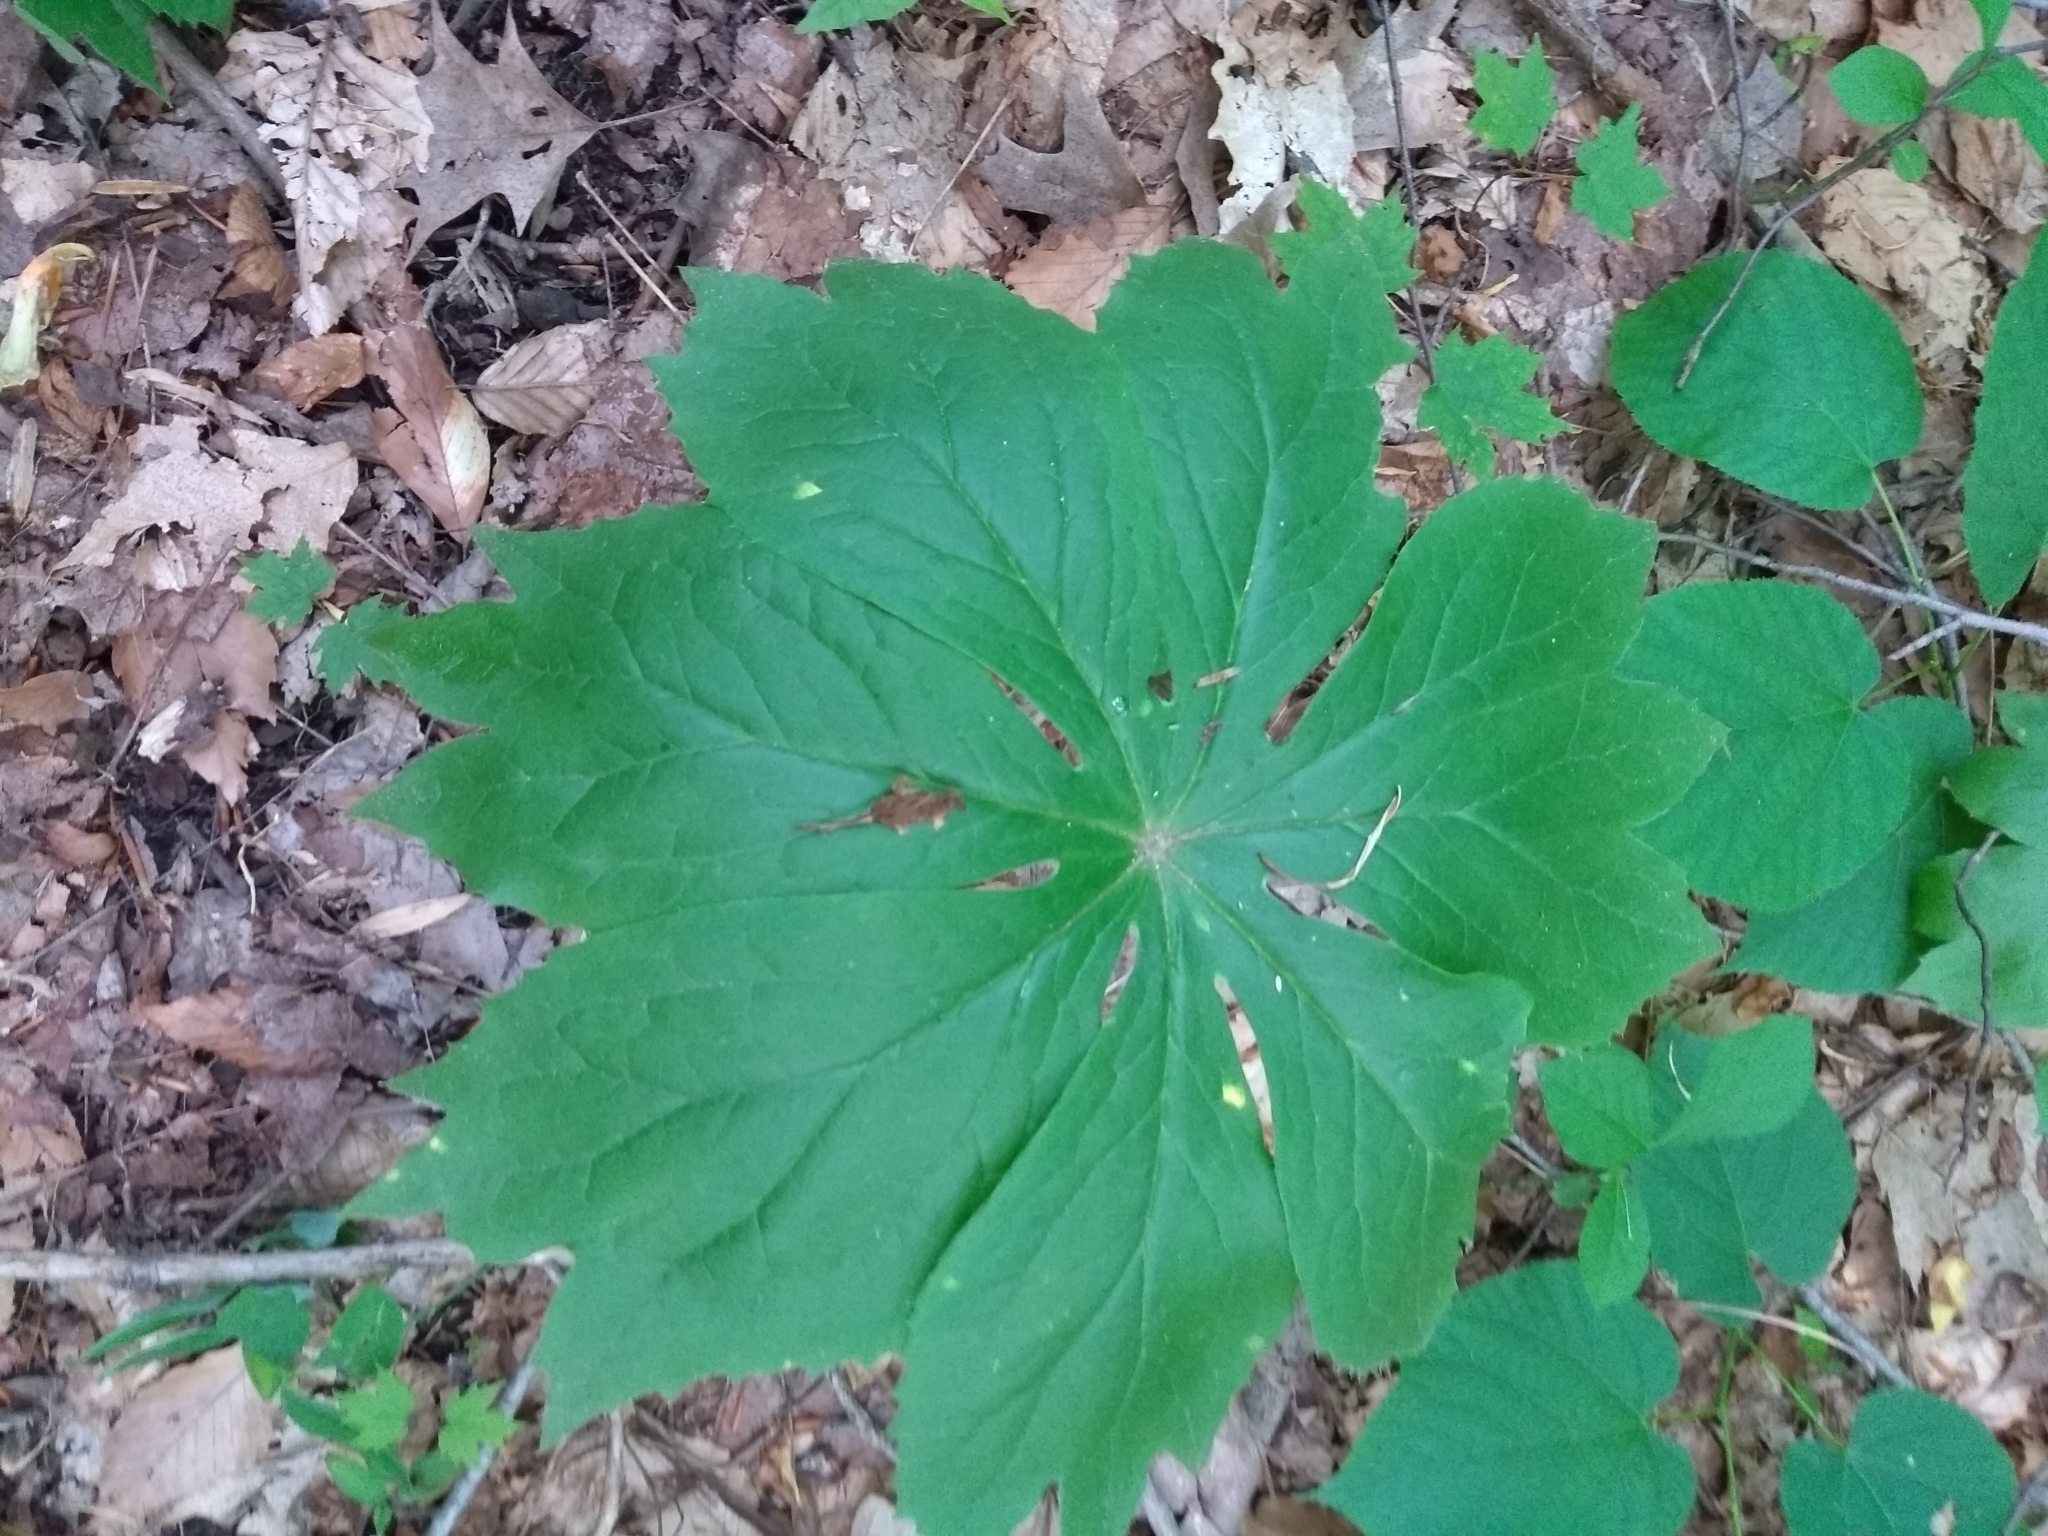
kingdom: Plantae
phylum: Tracheophyta
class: Magnoliopsida
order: Ranunculales
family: Berberidaceae
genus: Podophyllum
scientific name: Podophyllum peltatum
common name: Wild mandrake
